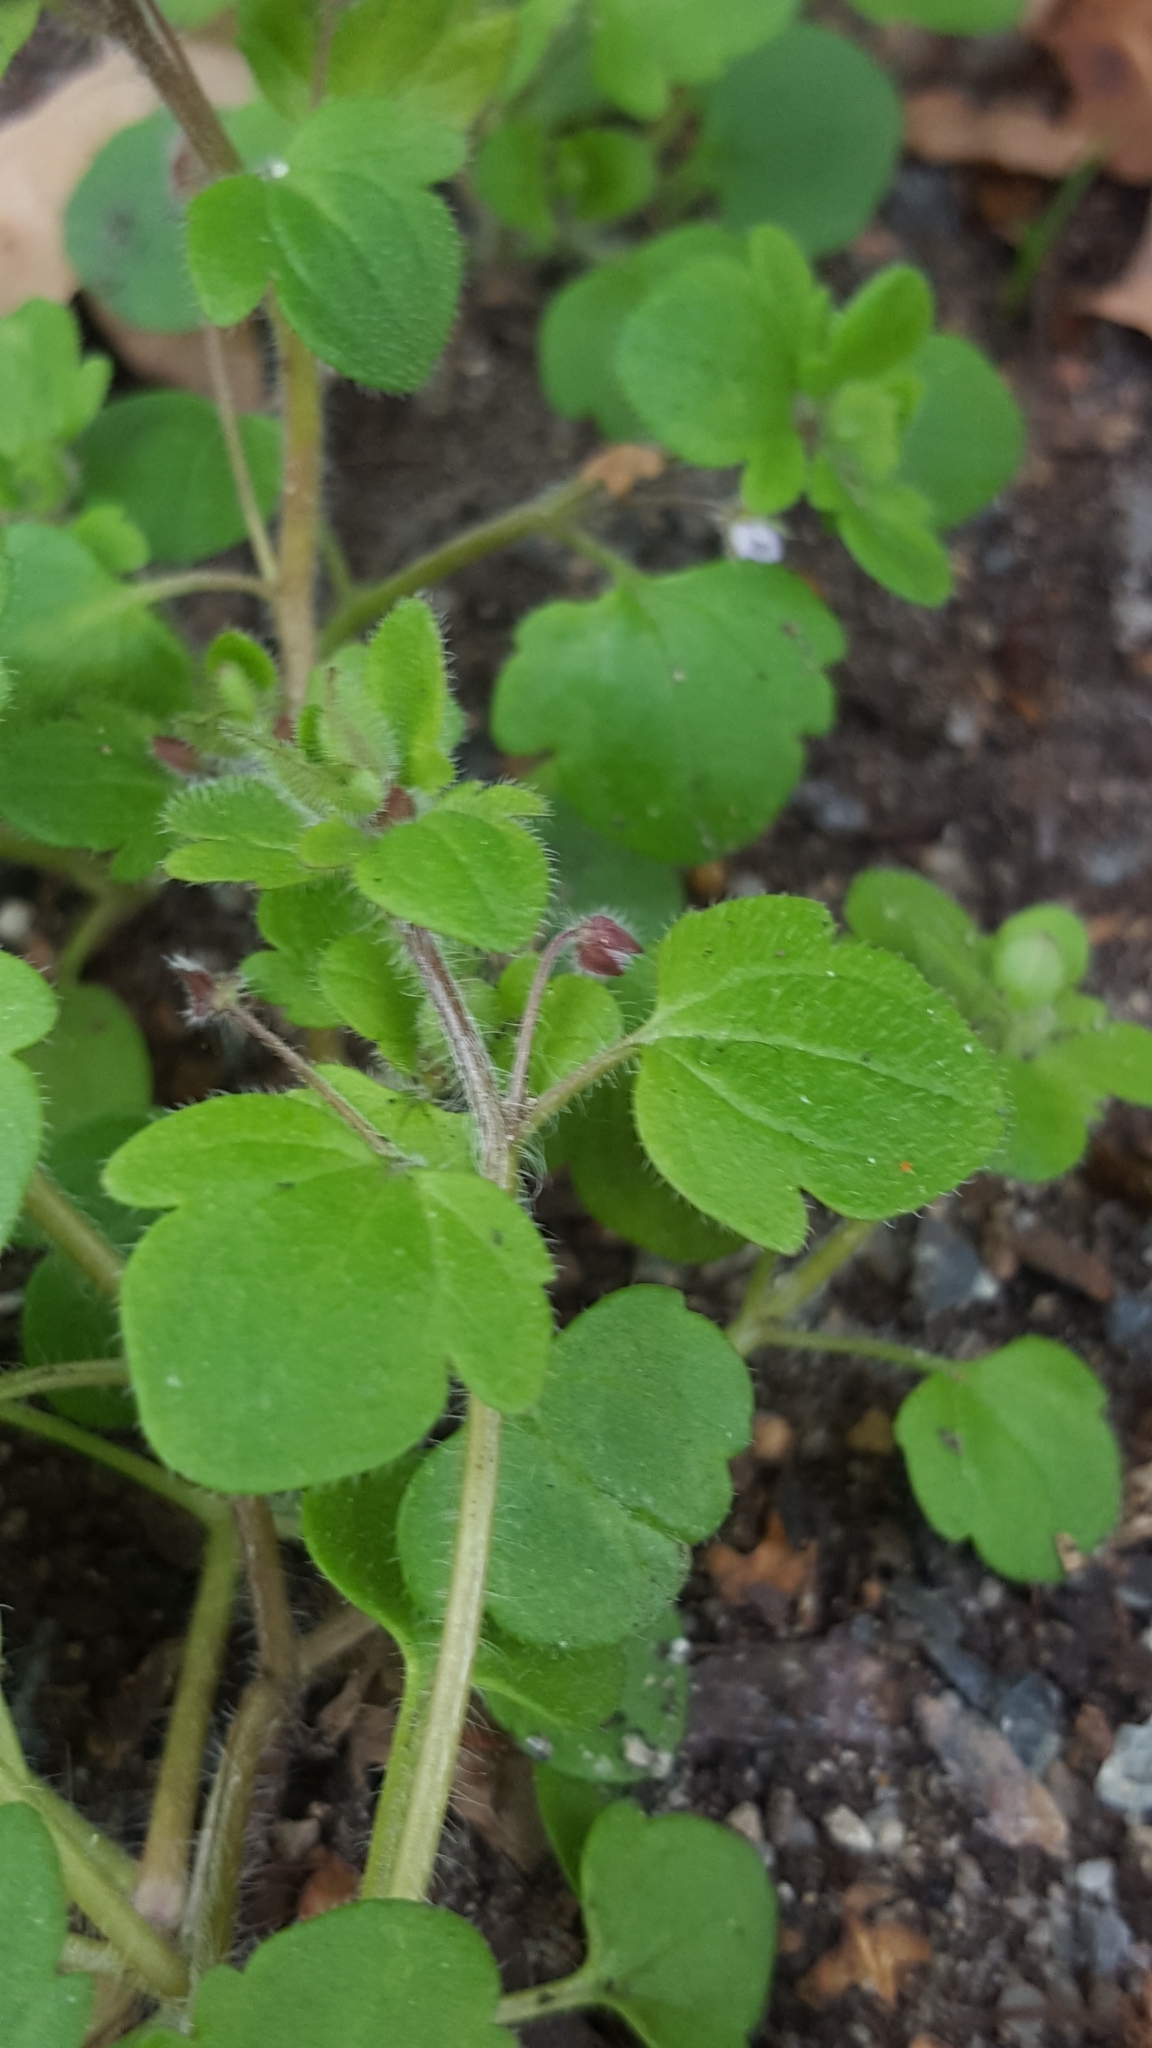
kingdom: Plantae
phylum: Tracheophyta
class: Magnoliopsida
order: Lamiales
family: Plantaginaceae
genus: Veronica
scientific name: Veronica sublobata
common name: False ivy-leaved speedwell
